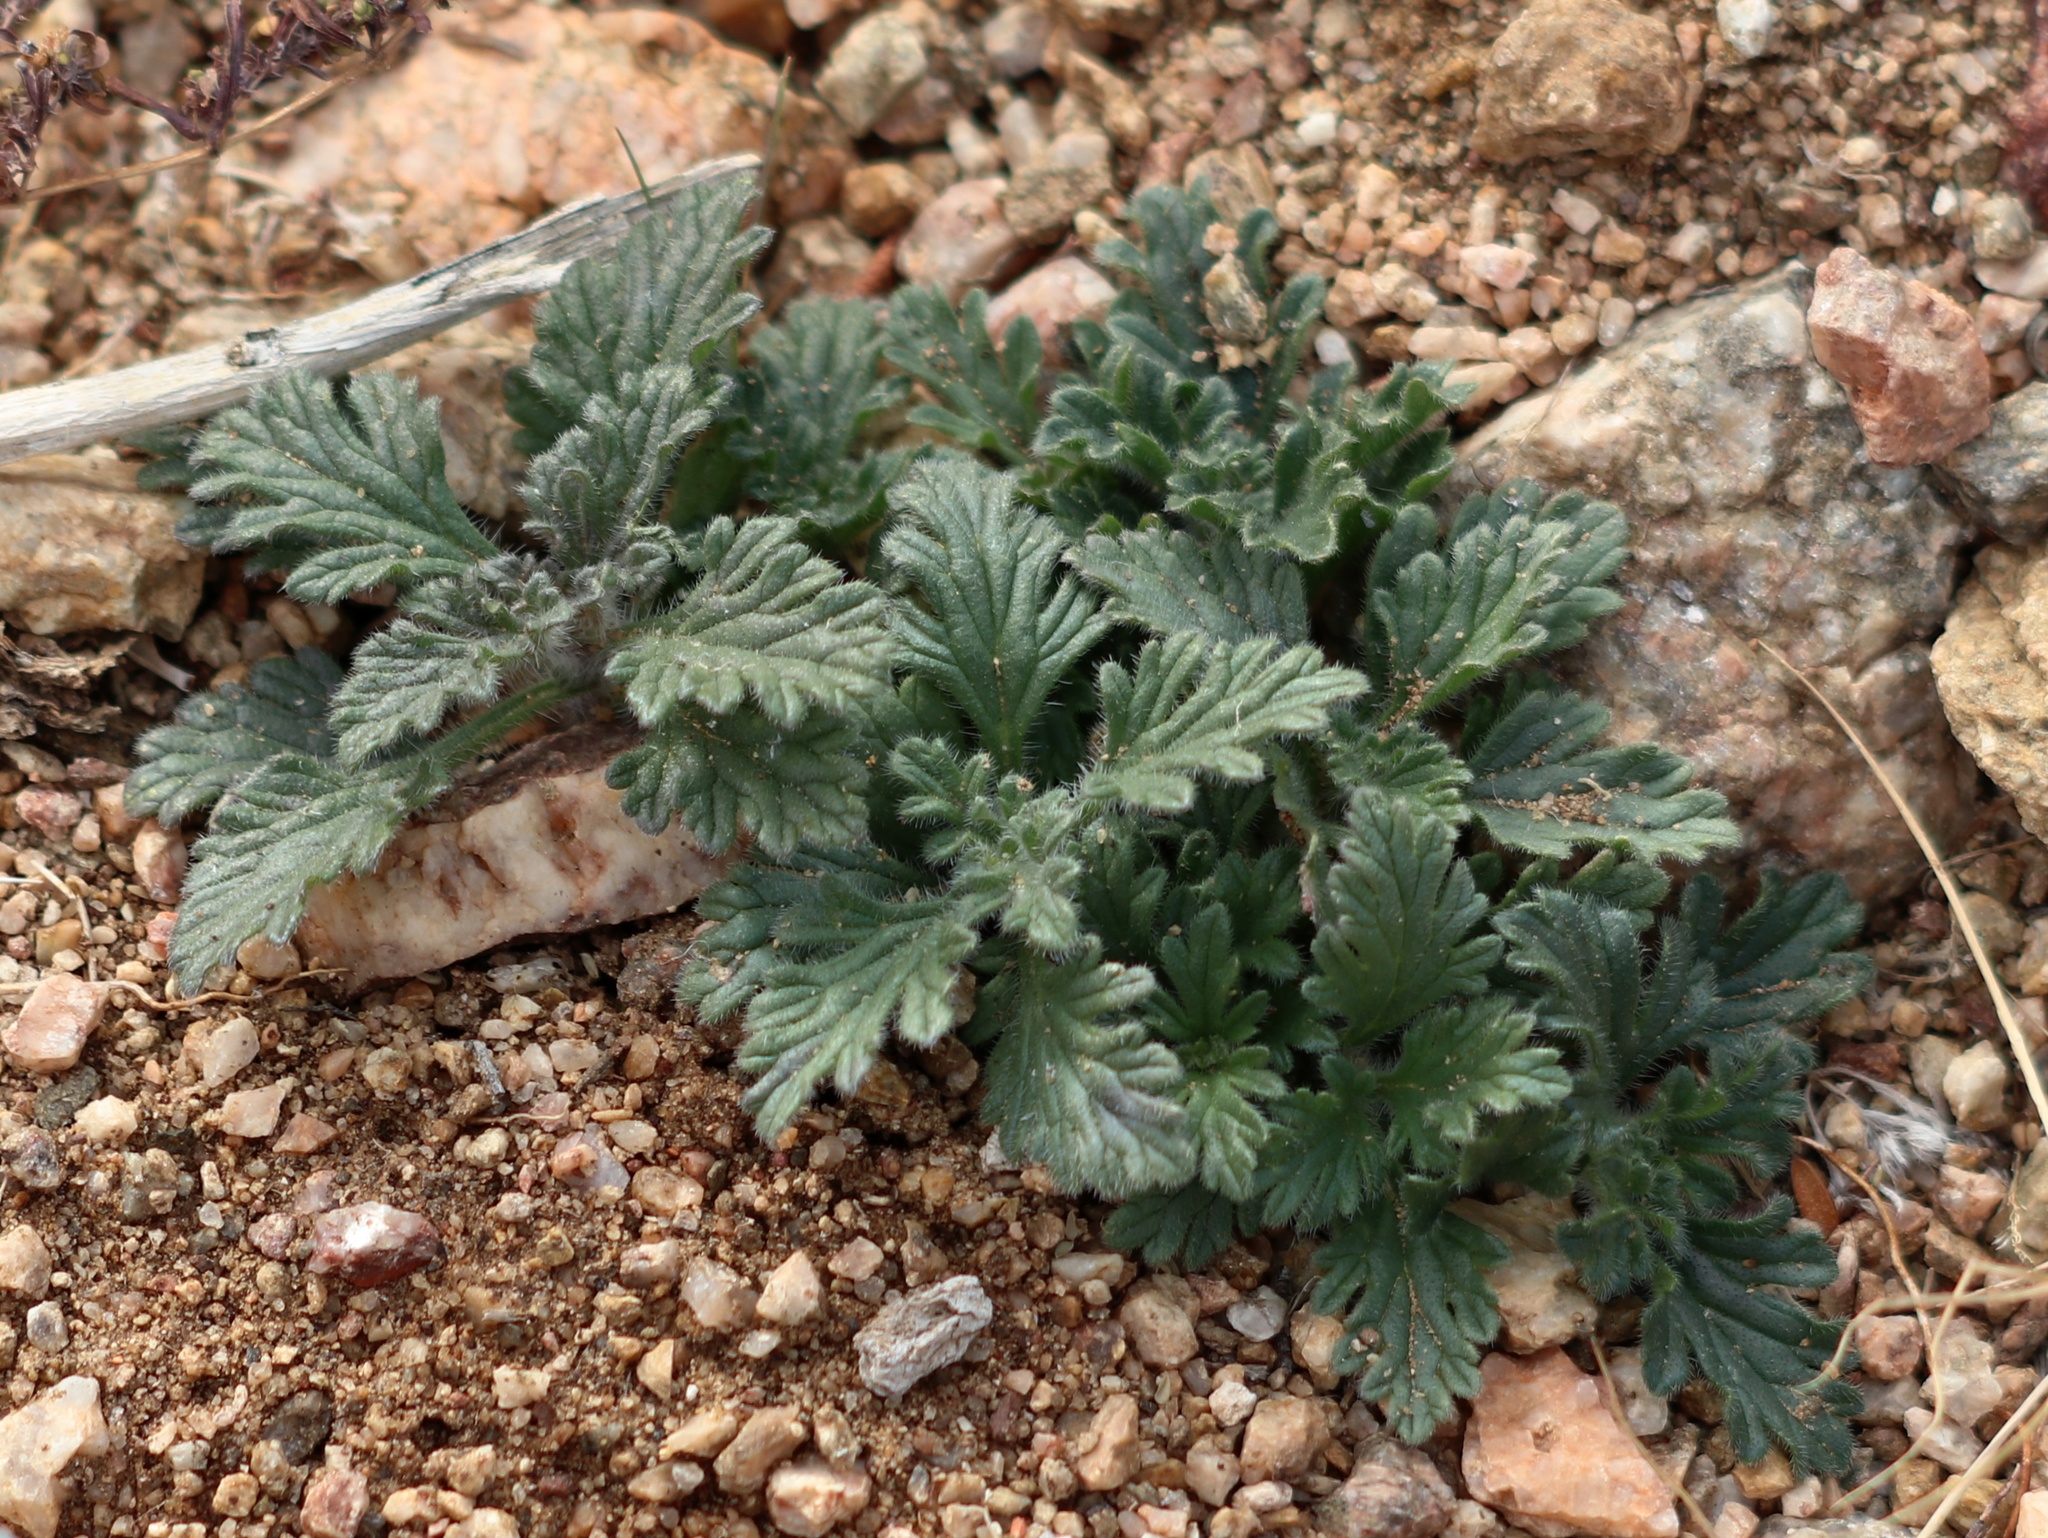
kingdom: Plantae
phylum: Tracheophyta
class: Magnoliopsida
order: Lamiales
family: Verbenaceae
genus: Verbena
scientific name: Verbena gooddingii
